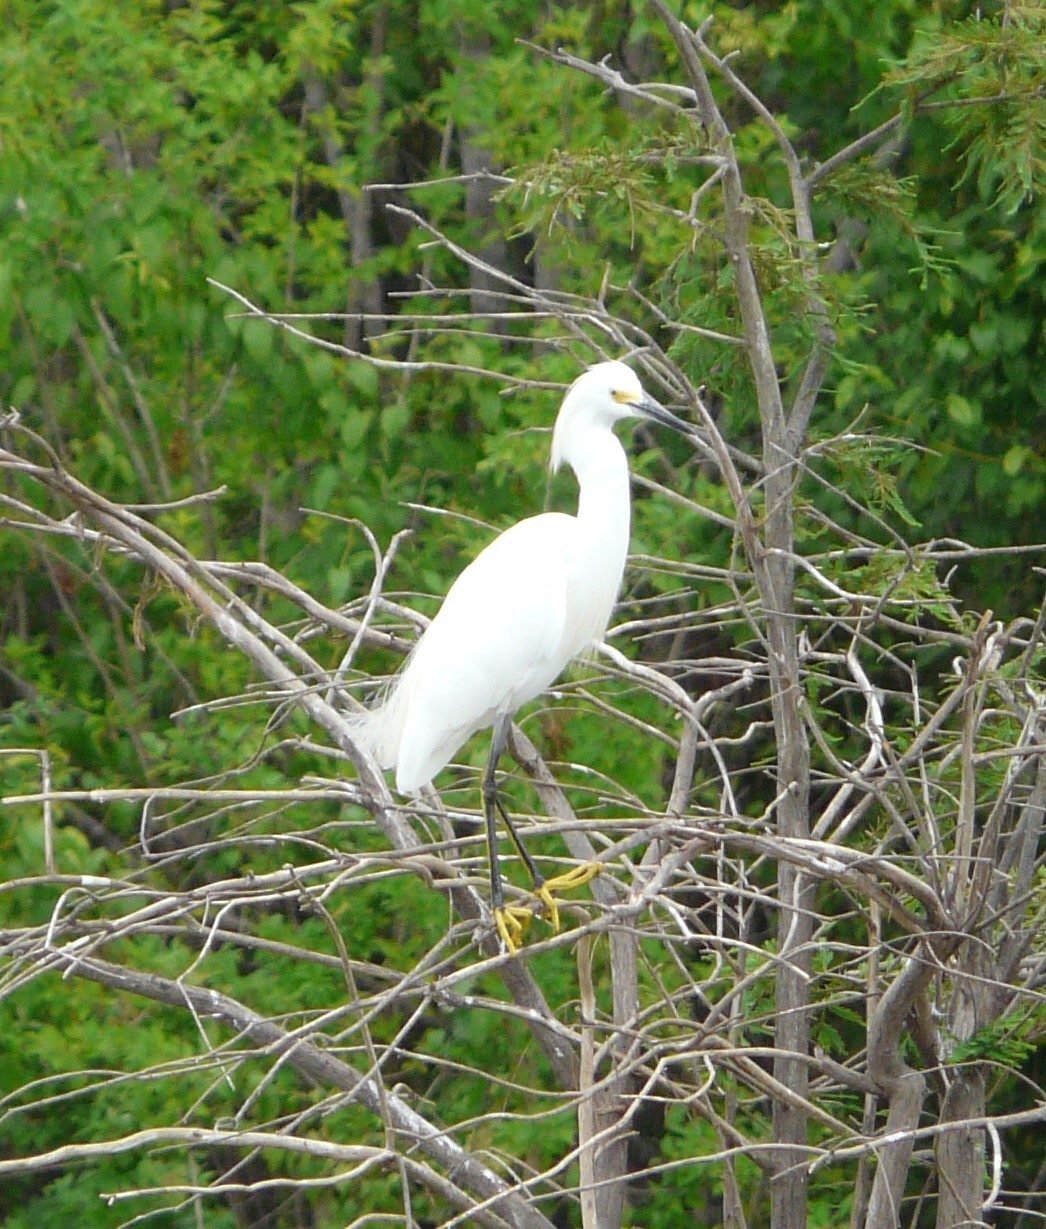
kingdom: Animalia
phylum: Chordata
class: Aves
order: Pelecaniformes
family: Ardeidae
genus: Egretta
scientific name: Egretta thula
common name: Snowy egret
